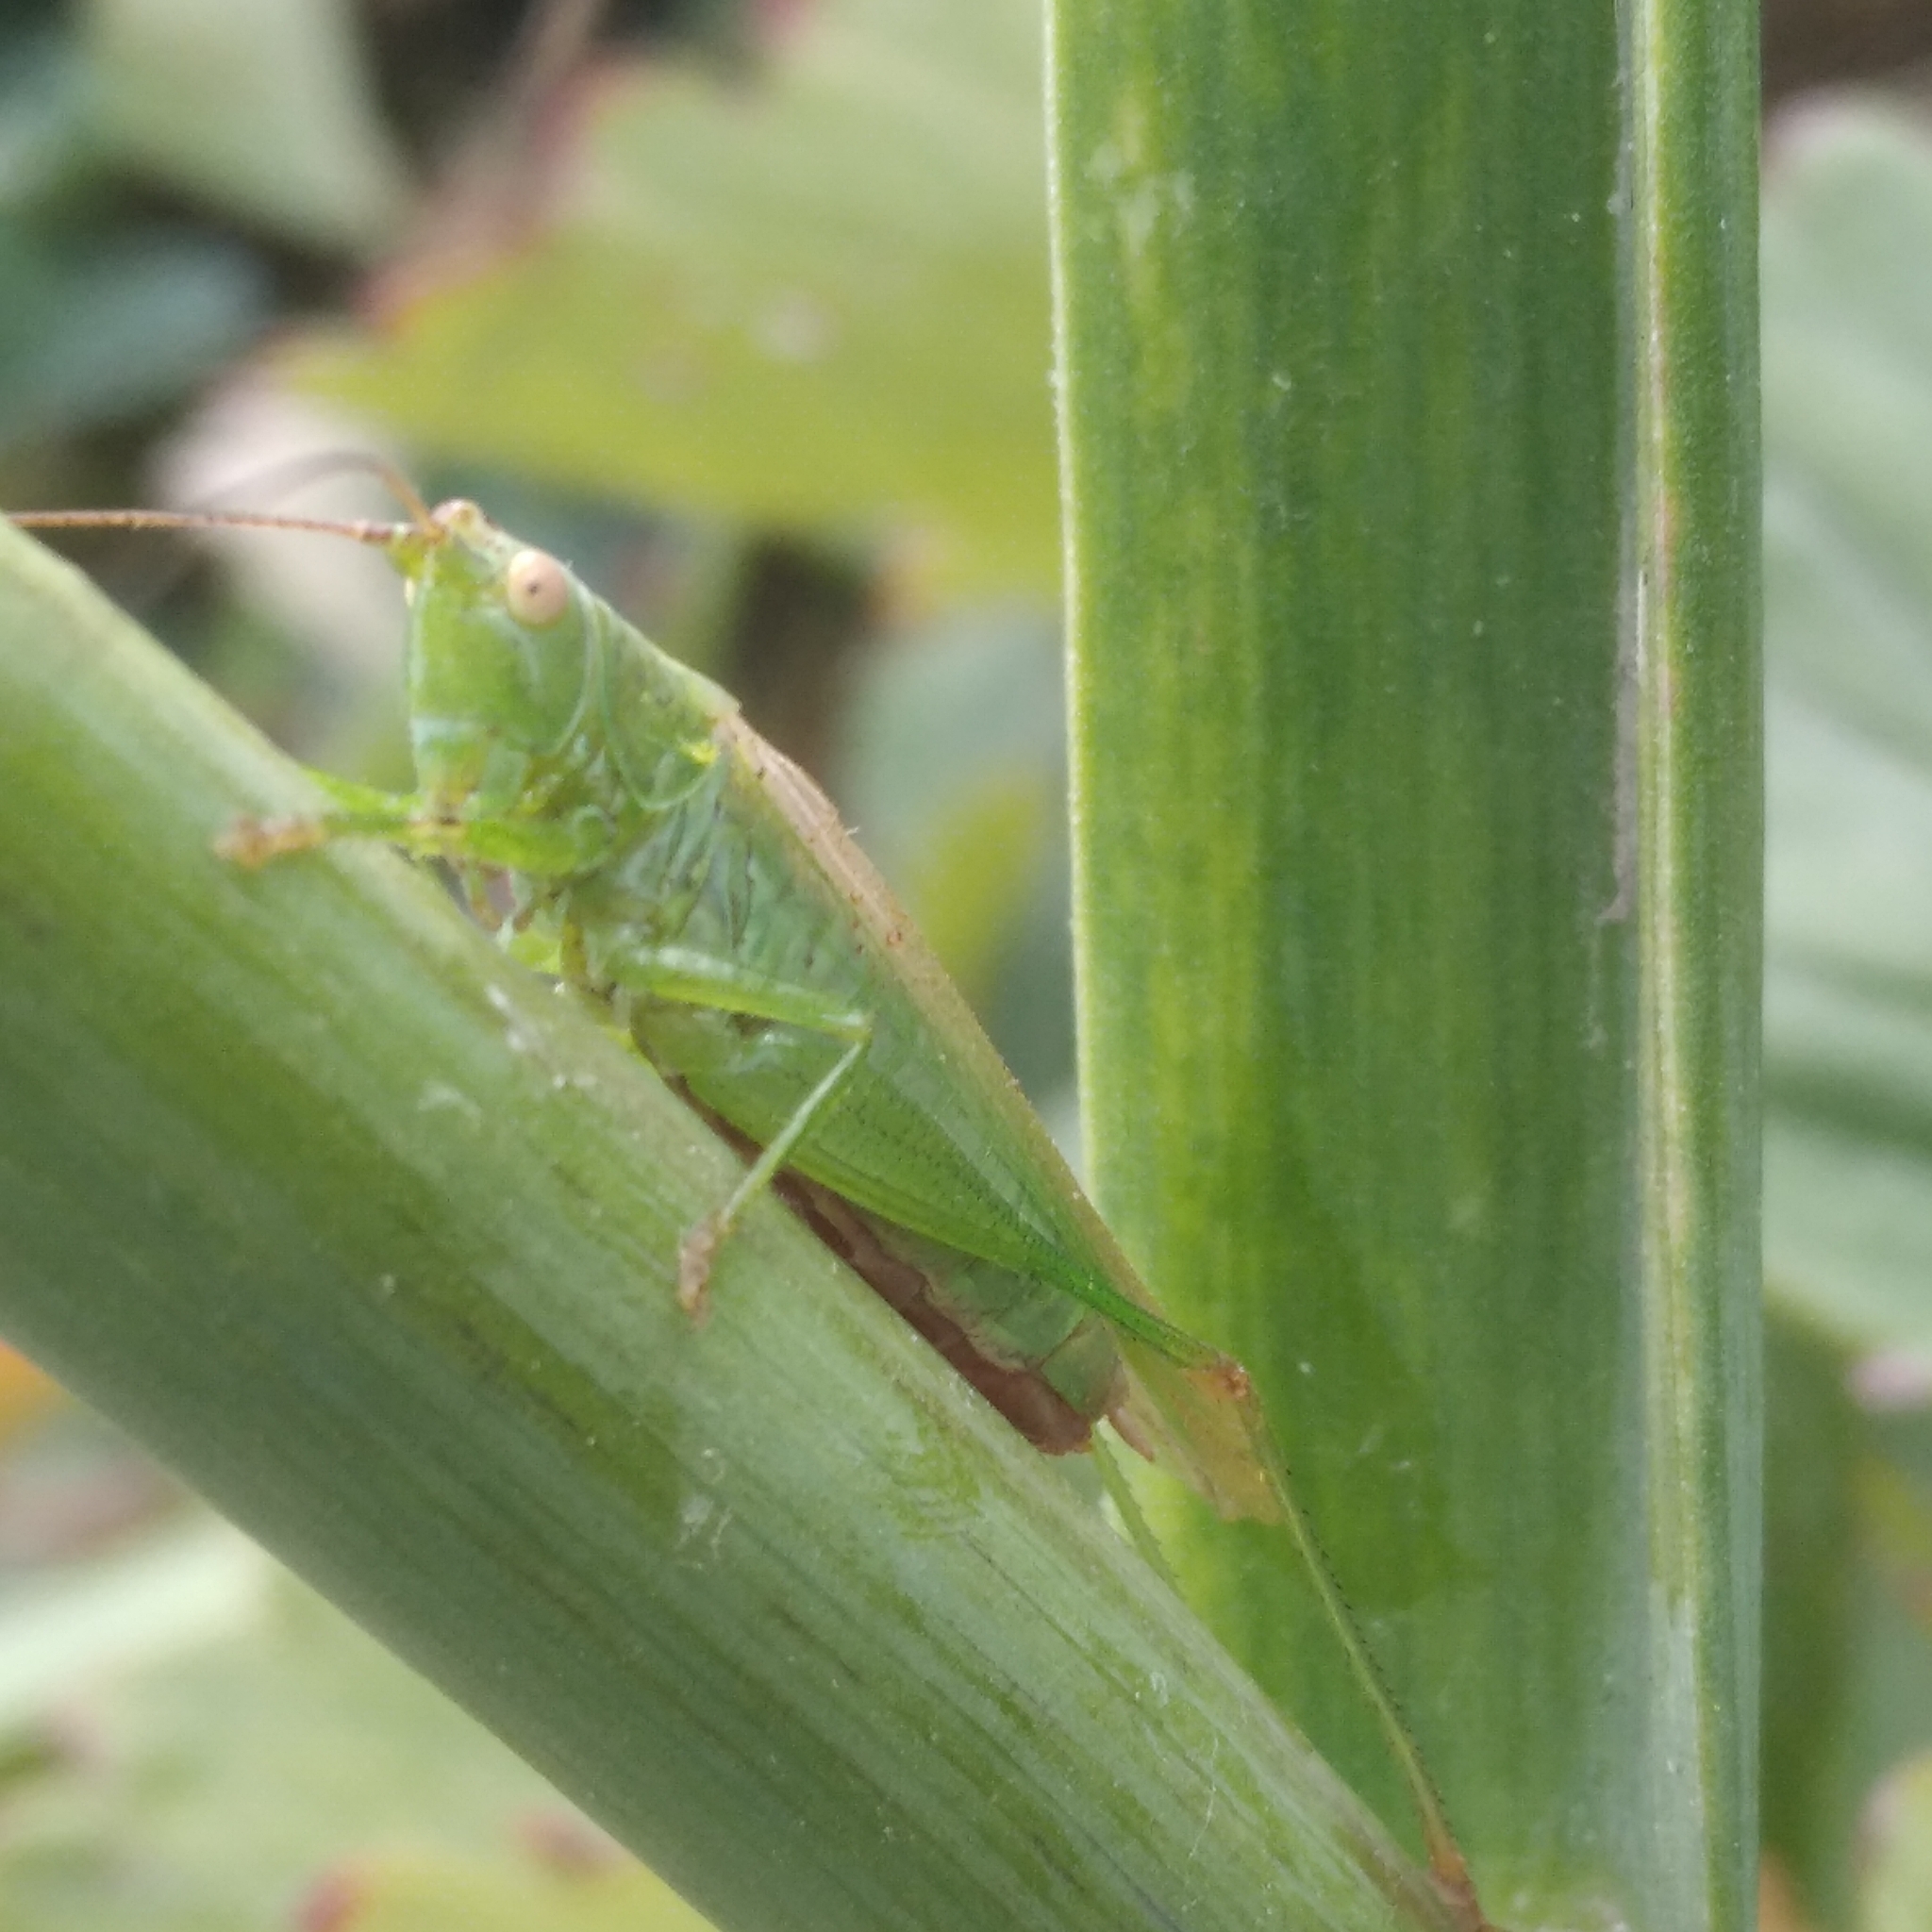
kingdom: Animalia
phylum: Arthropoda
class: Insecta
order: Orthoptera
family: Tettigoniidae
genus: Conocephalus
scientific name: Conocephalus fuscus
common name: Long-winged conehead
